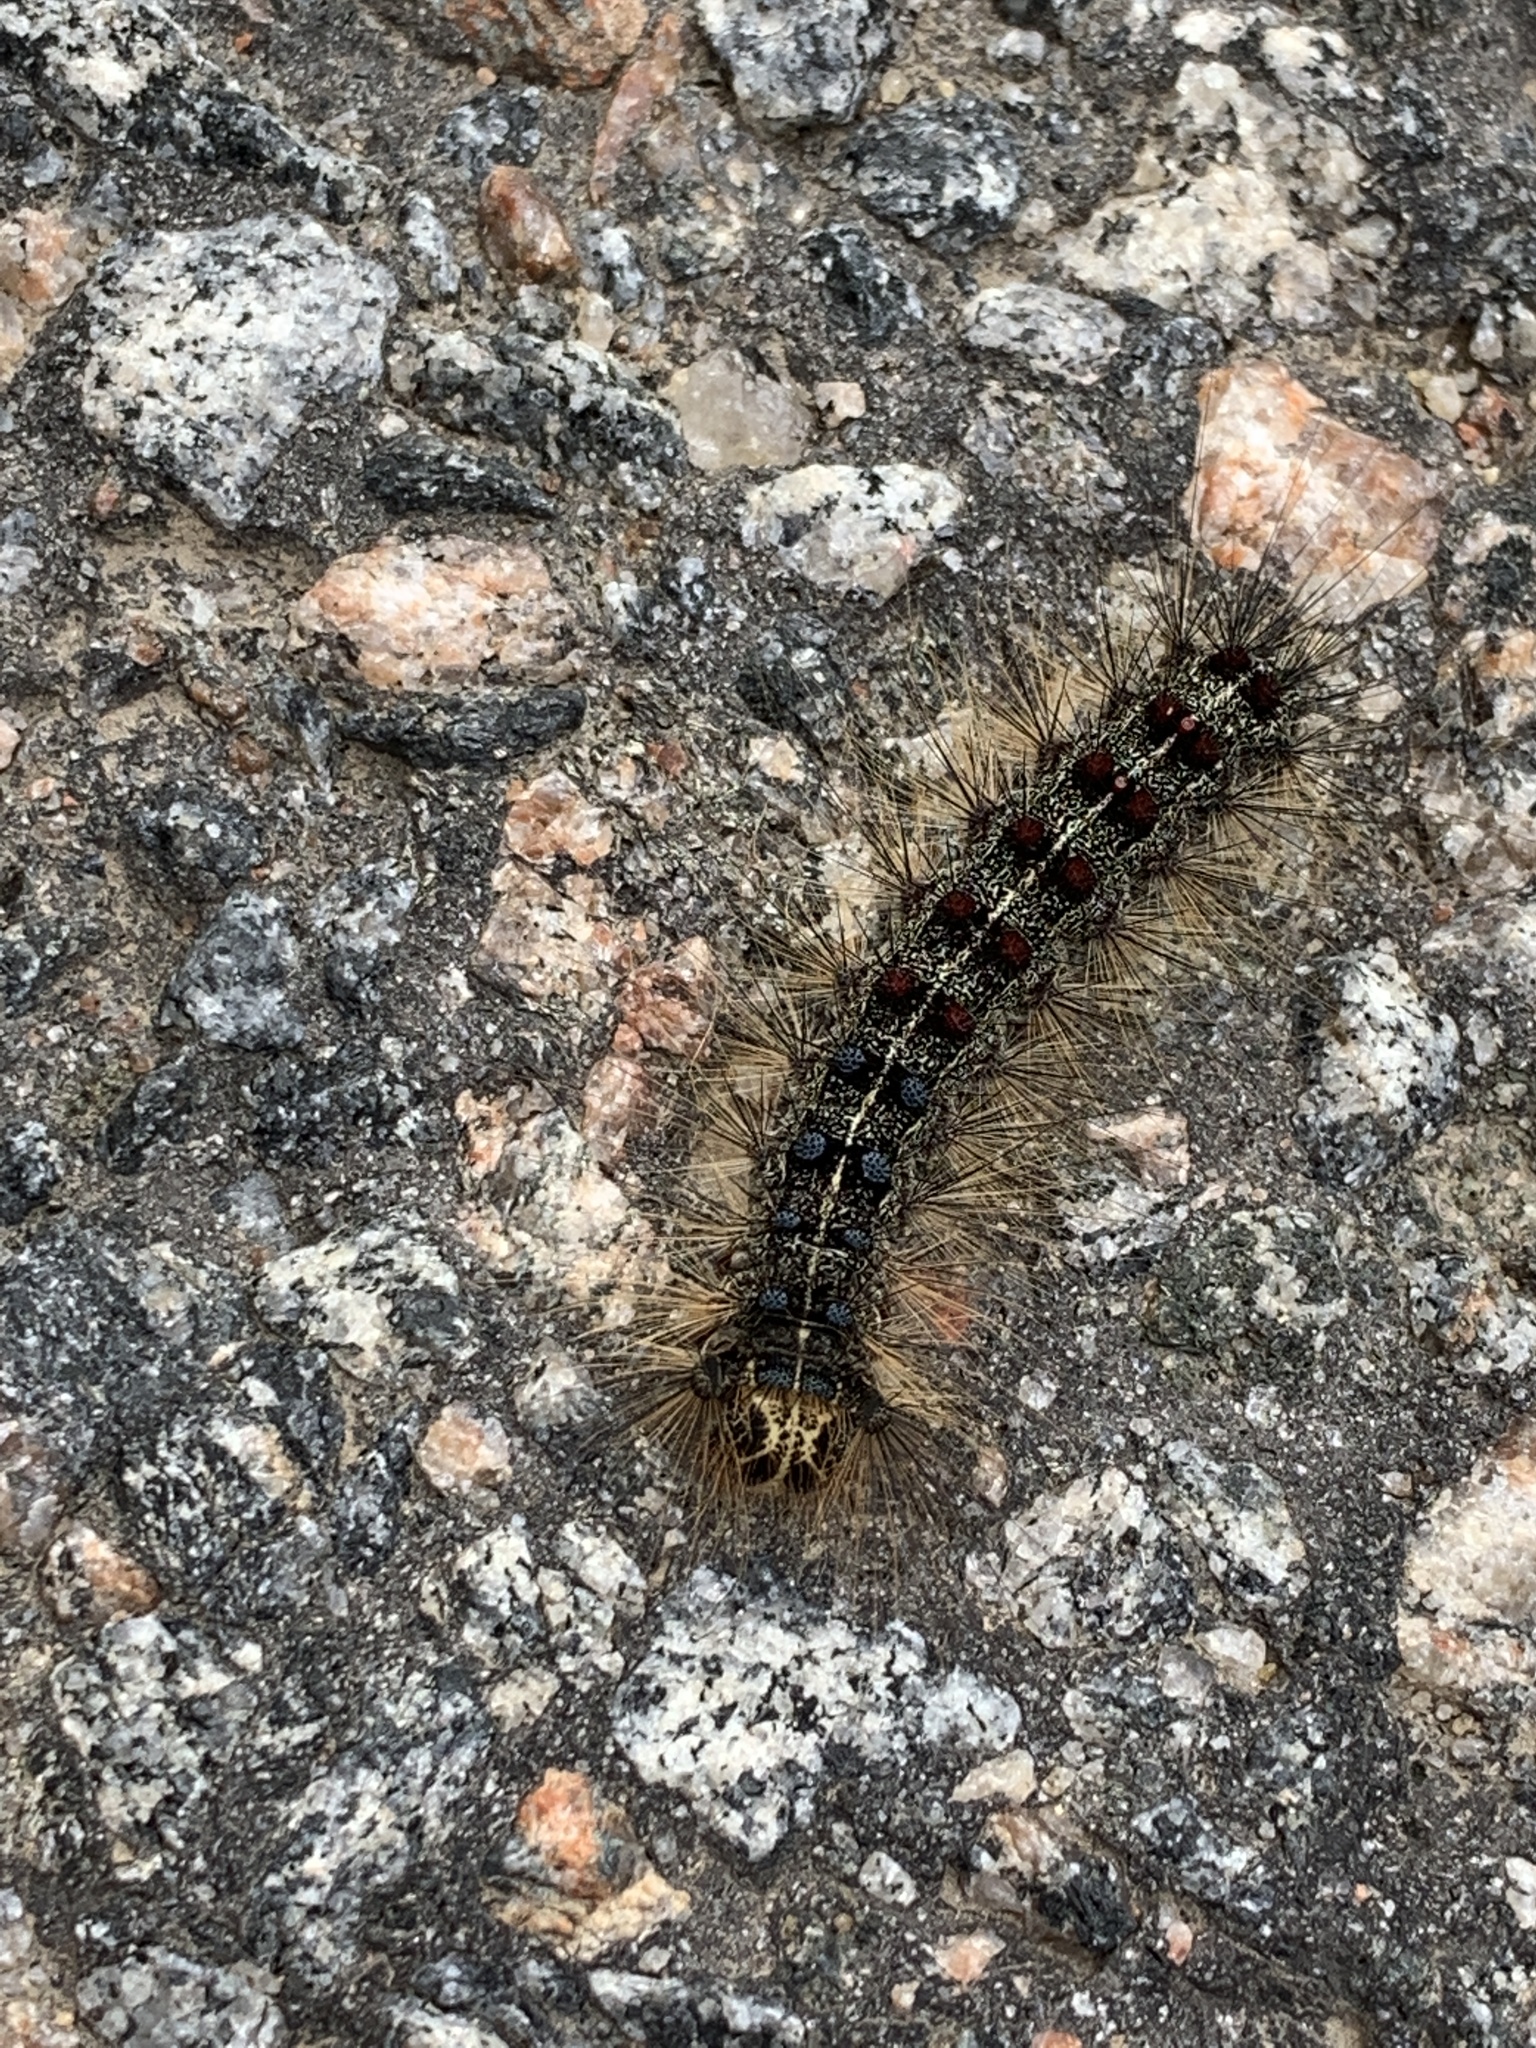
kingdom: Animalia
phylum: Arthropoda
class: Insecta
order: Lepidoptera
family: Erebidae
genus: Lymantria
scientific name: Lymantria dispar
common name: Gypsy moth
